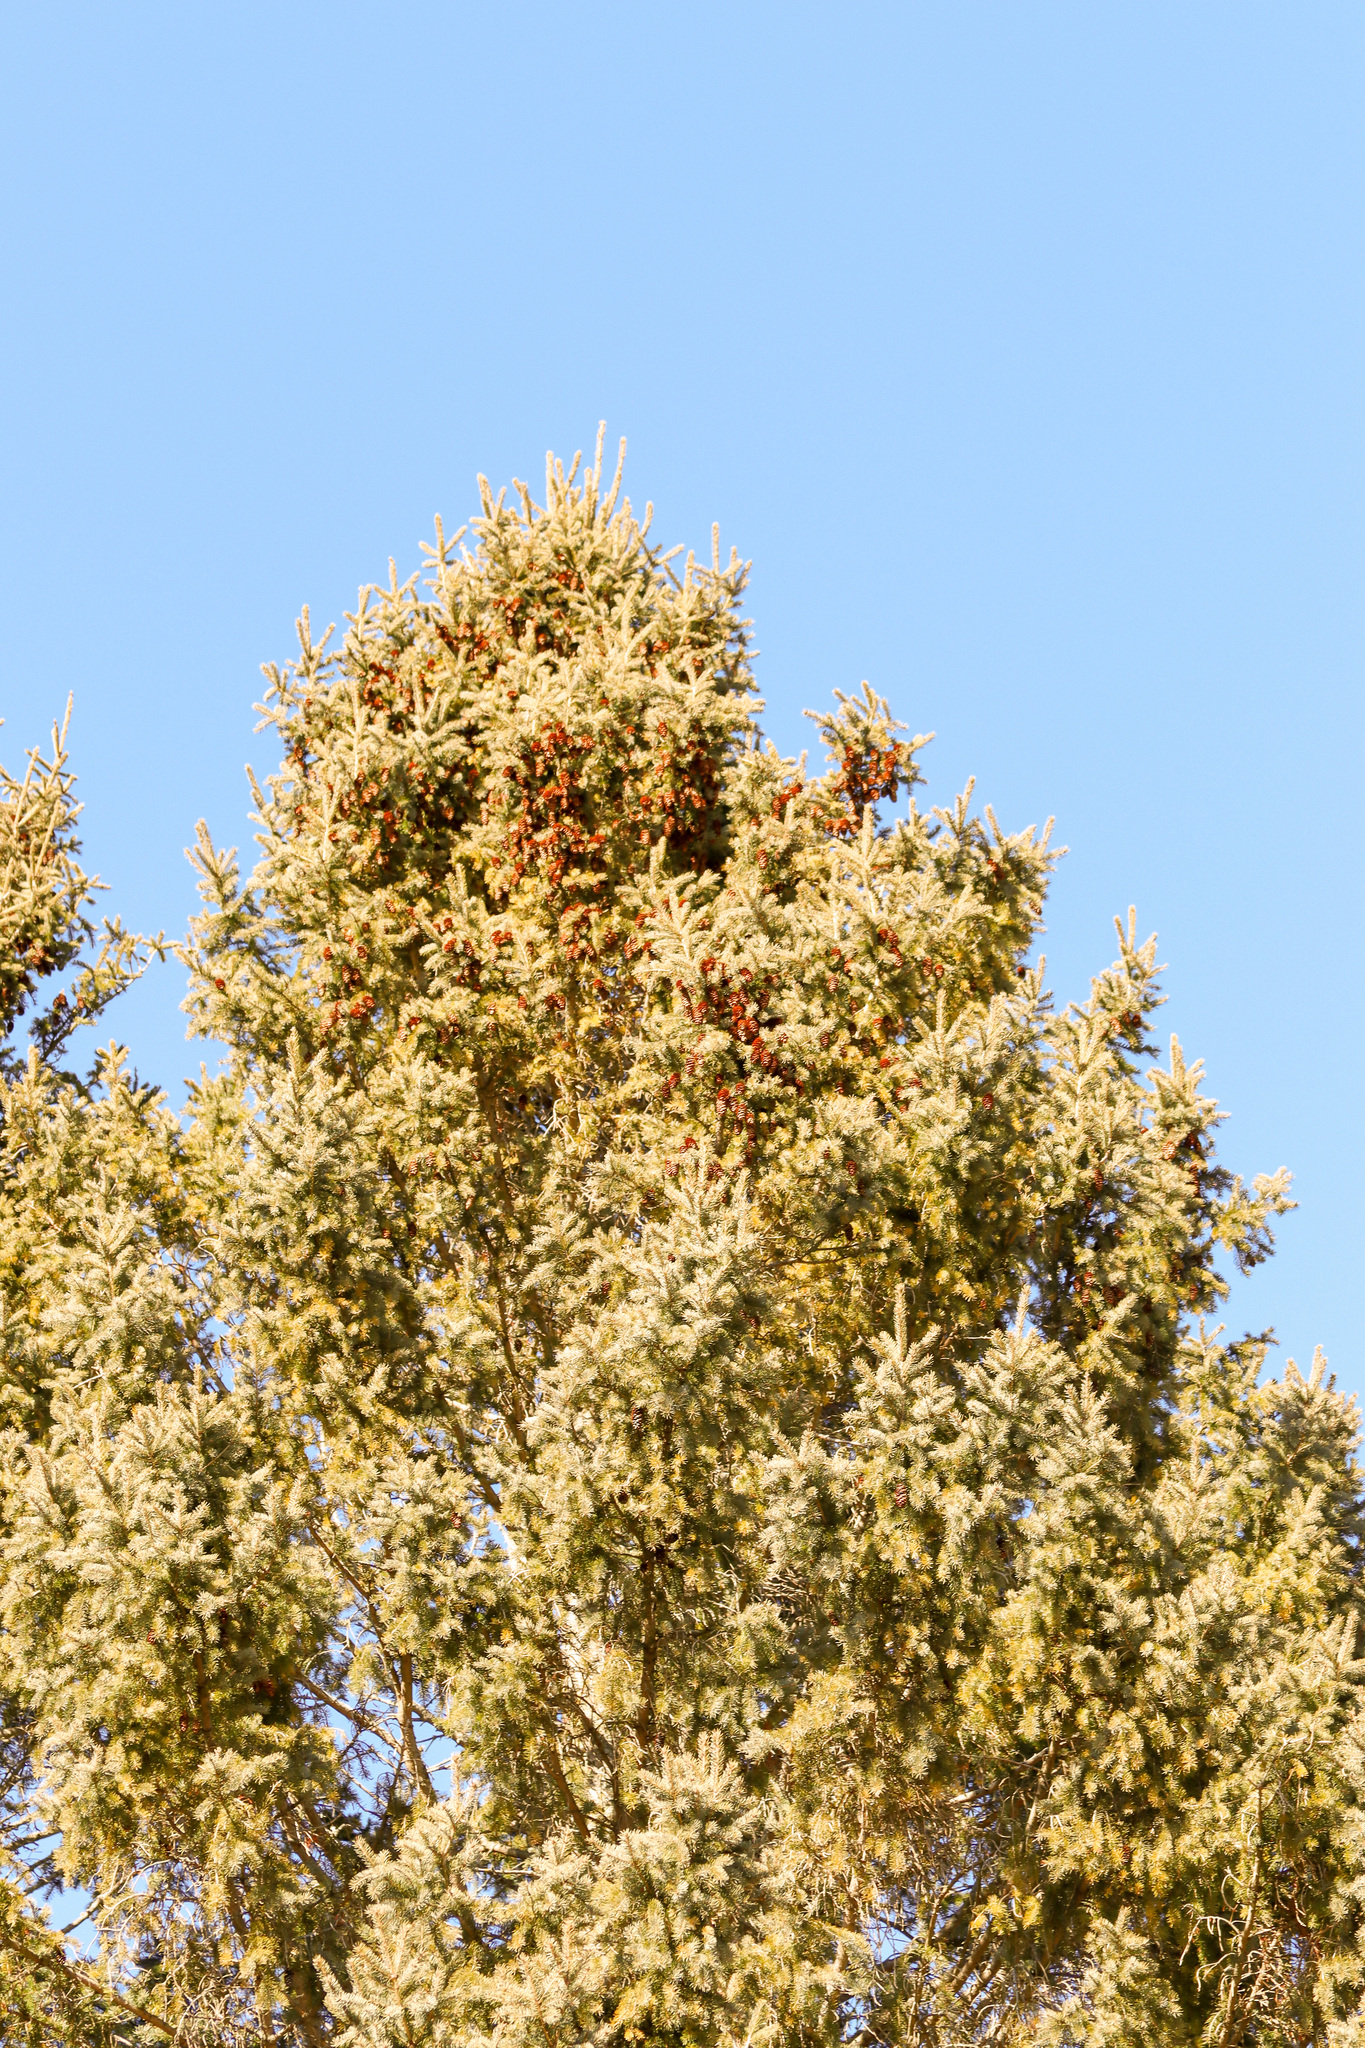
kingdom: Plantae
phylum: Tracheophyta
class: Pinopsida
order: Pinales
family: Pinaceae
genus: Picea
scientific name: Picea glauca
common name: White spruce
